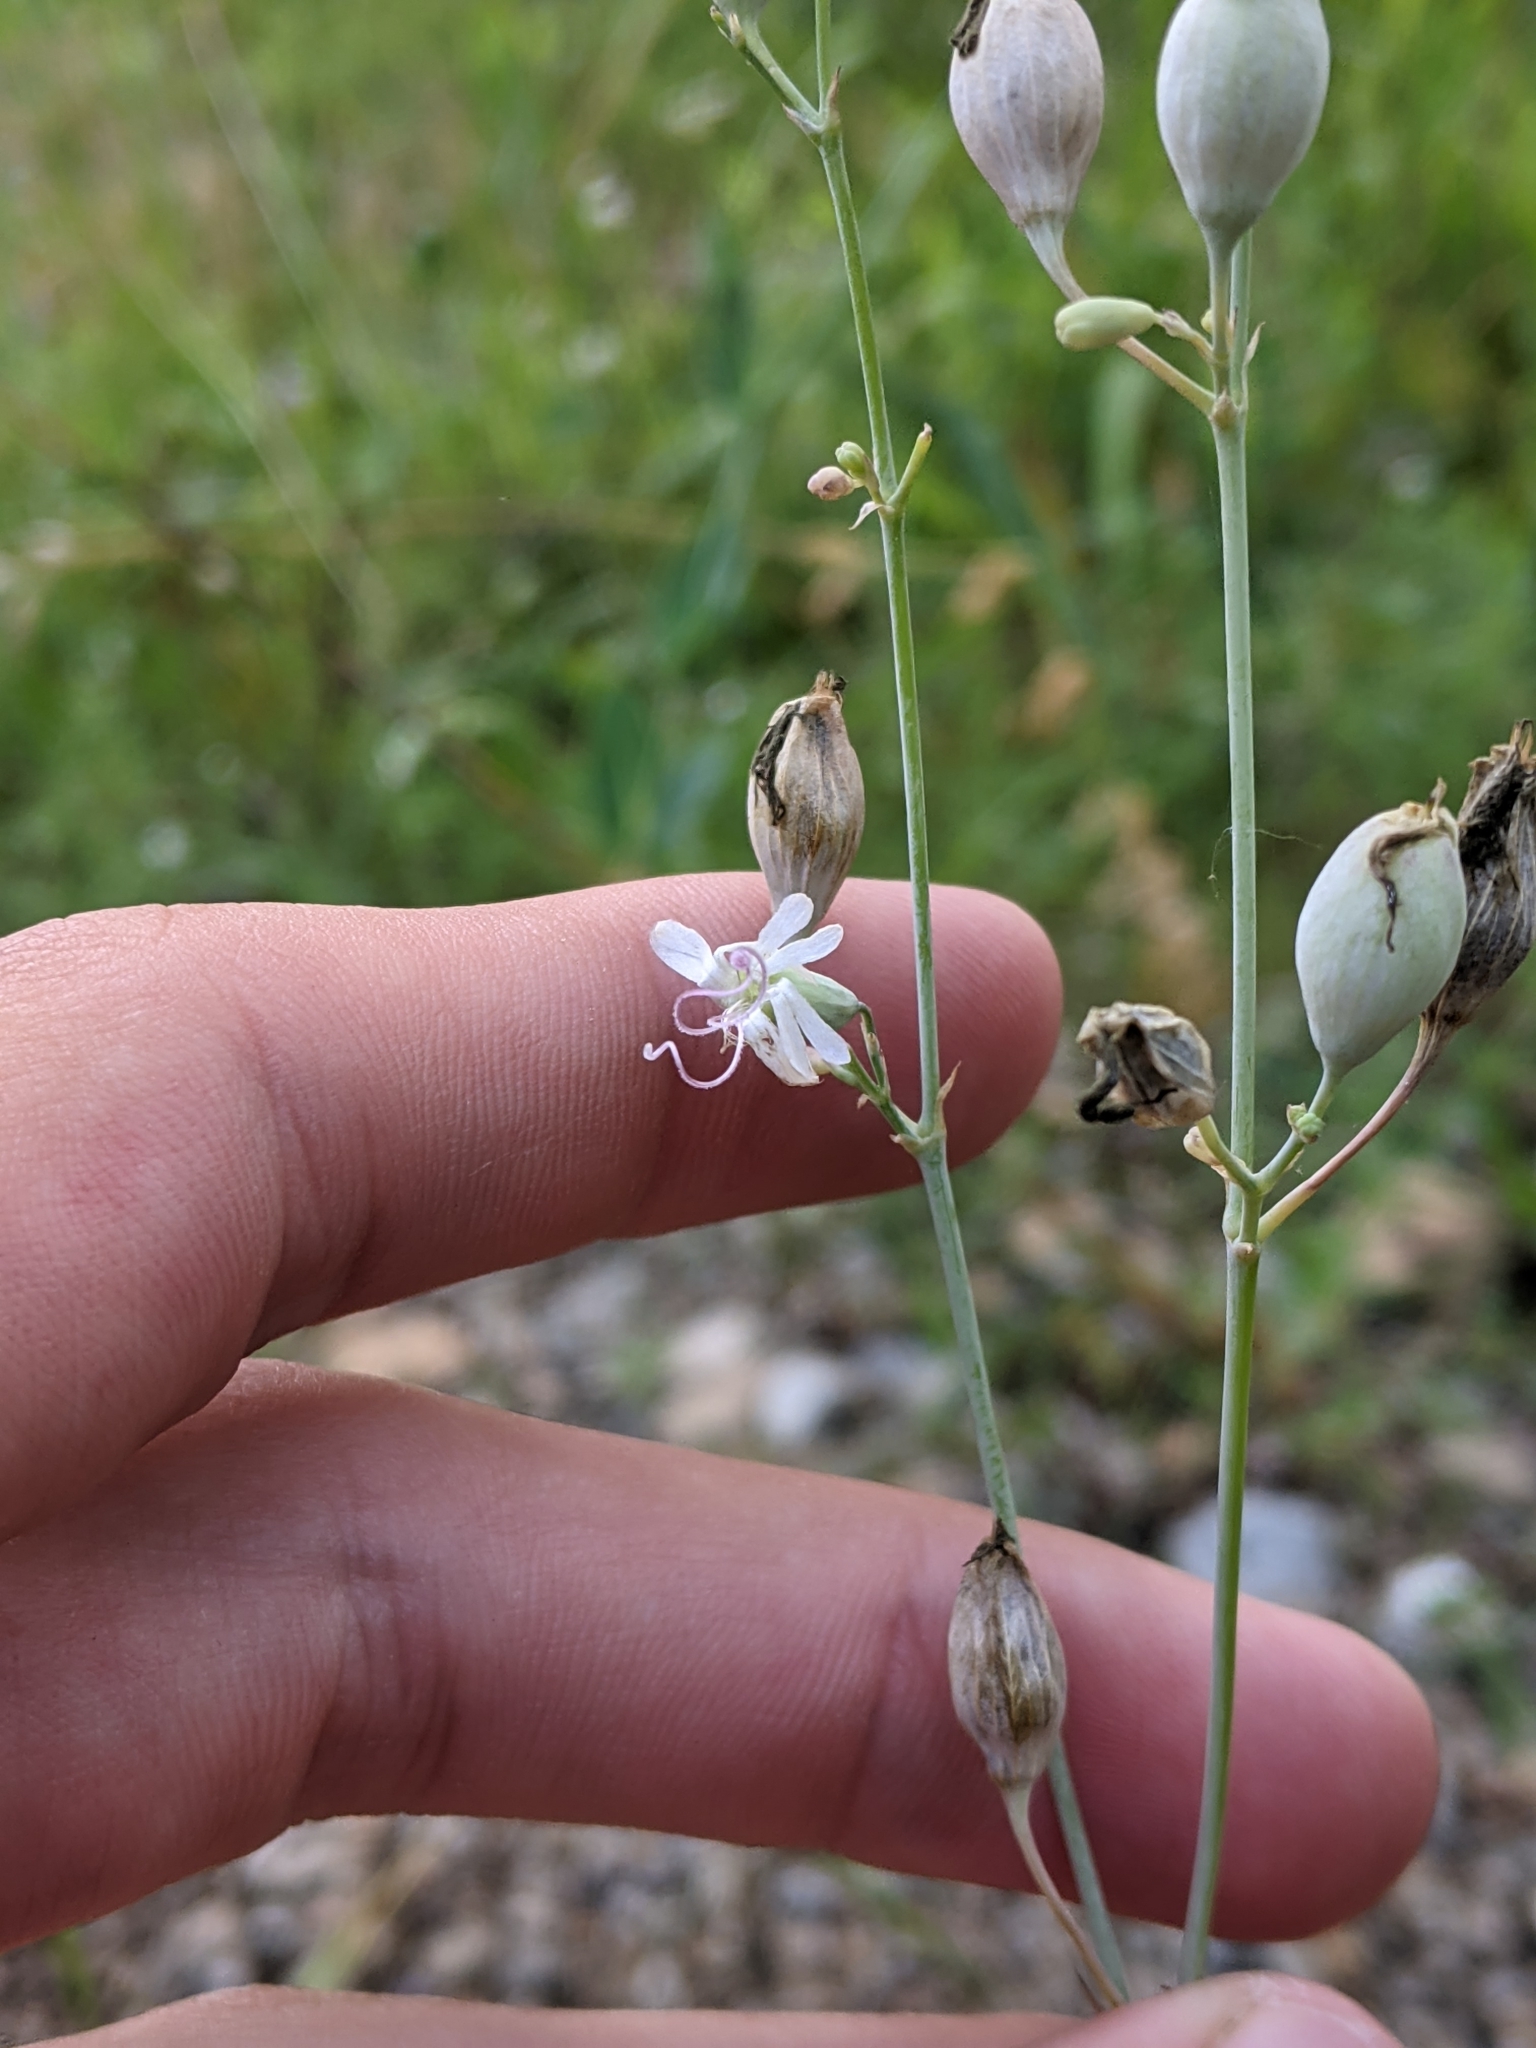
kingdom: Plantae
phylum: Tracheophyta
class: Magnoliopsida
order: Caryophyllales
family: Caryophyllaceae
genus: Silene
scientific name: Silene csereii
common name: Balkan catchfly
